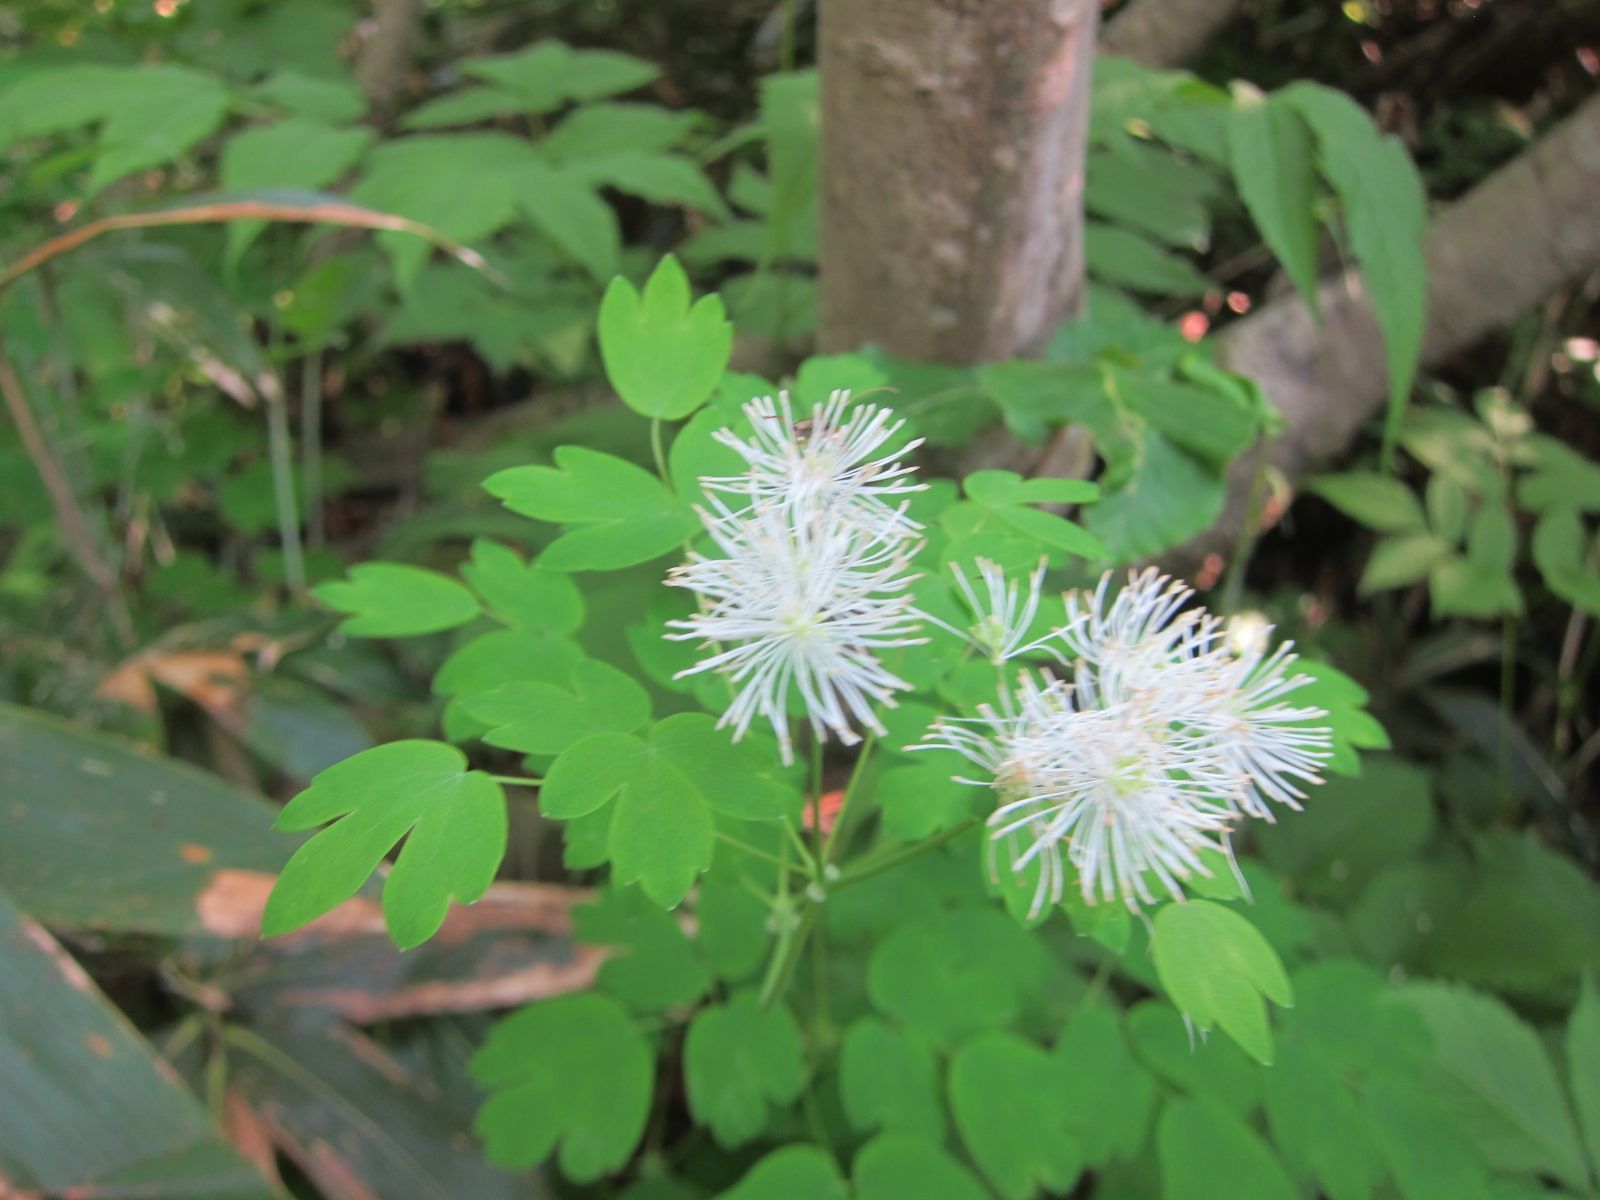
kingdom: Plantae
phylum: Tracheophyta
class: Magnoliopsida
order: Ranunculales
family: Ranunculaceae
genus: Thalictrum
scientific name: Thalictrum aquilegiifolium
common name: French meadow-rue
